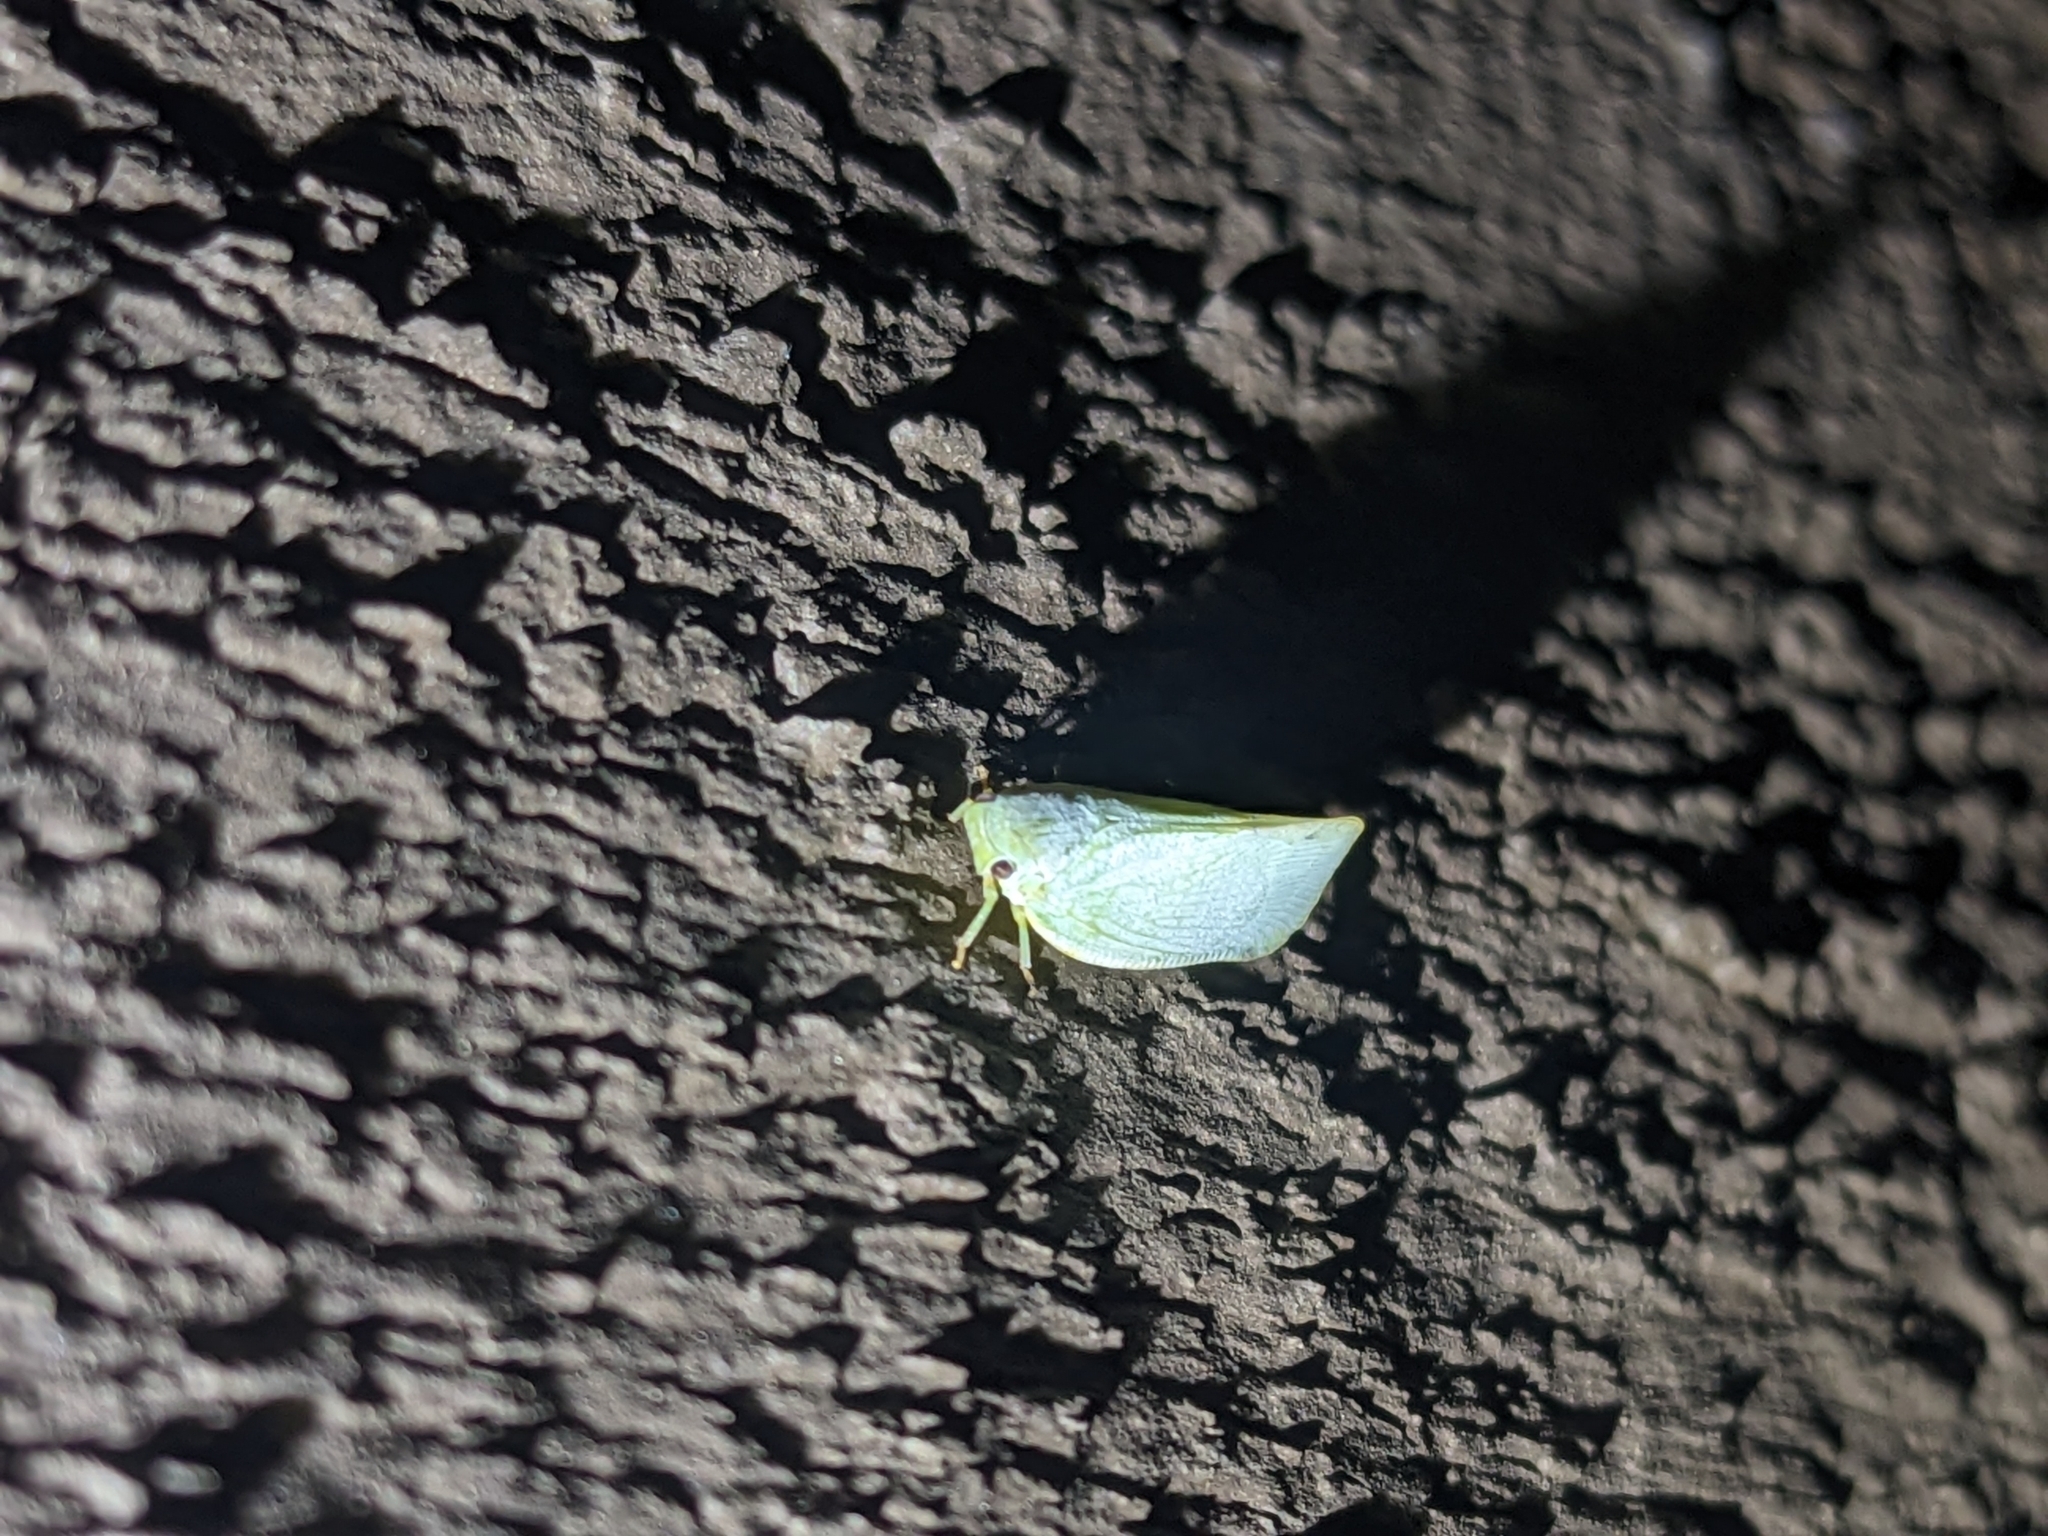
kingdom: Animalia
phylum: Arthropoda
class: Insecta
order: Hemiptera
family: Flatidae
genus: Flatormenis
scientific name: Flatormenis proxima
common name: Northern flatid planthopper
